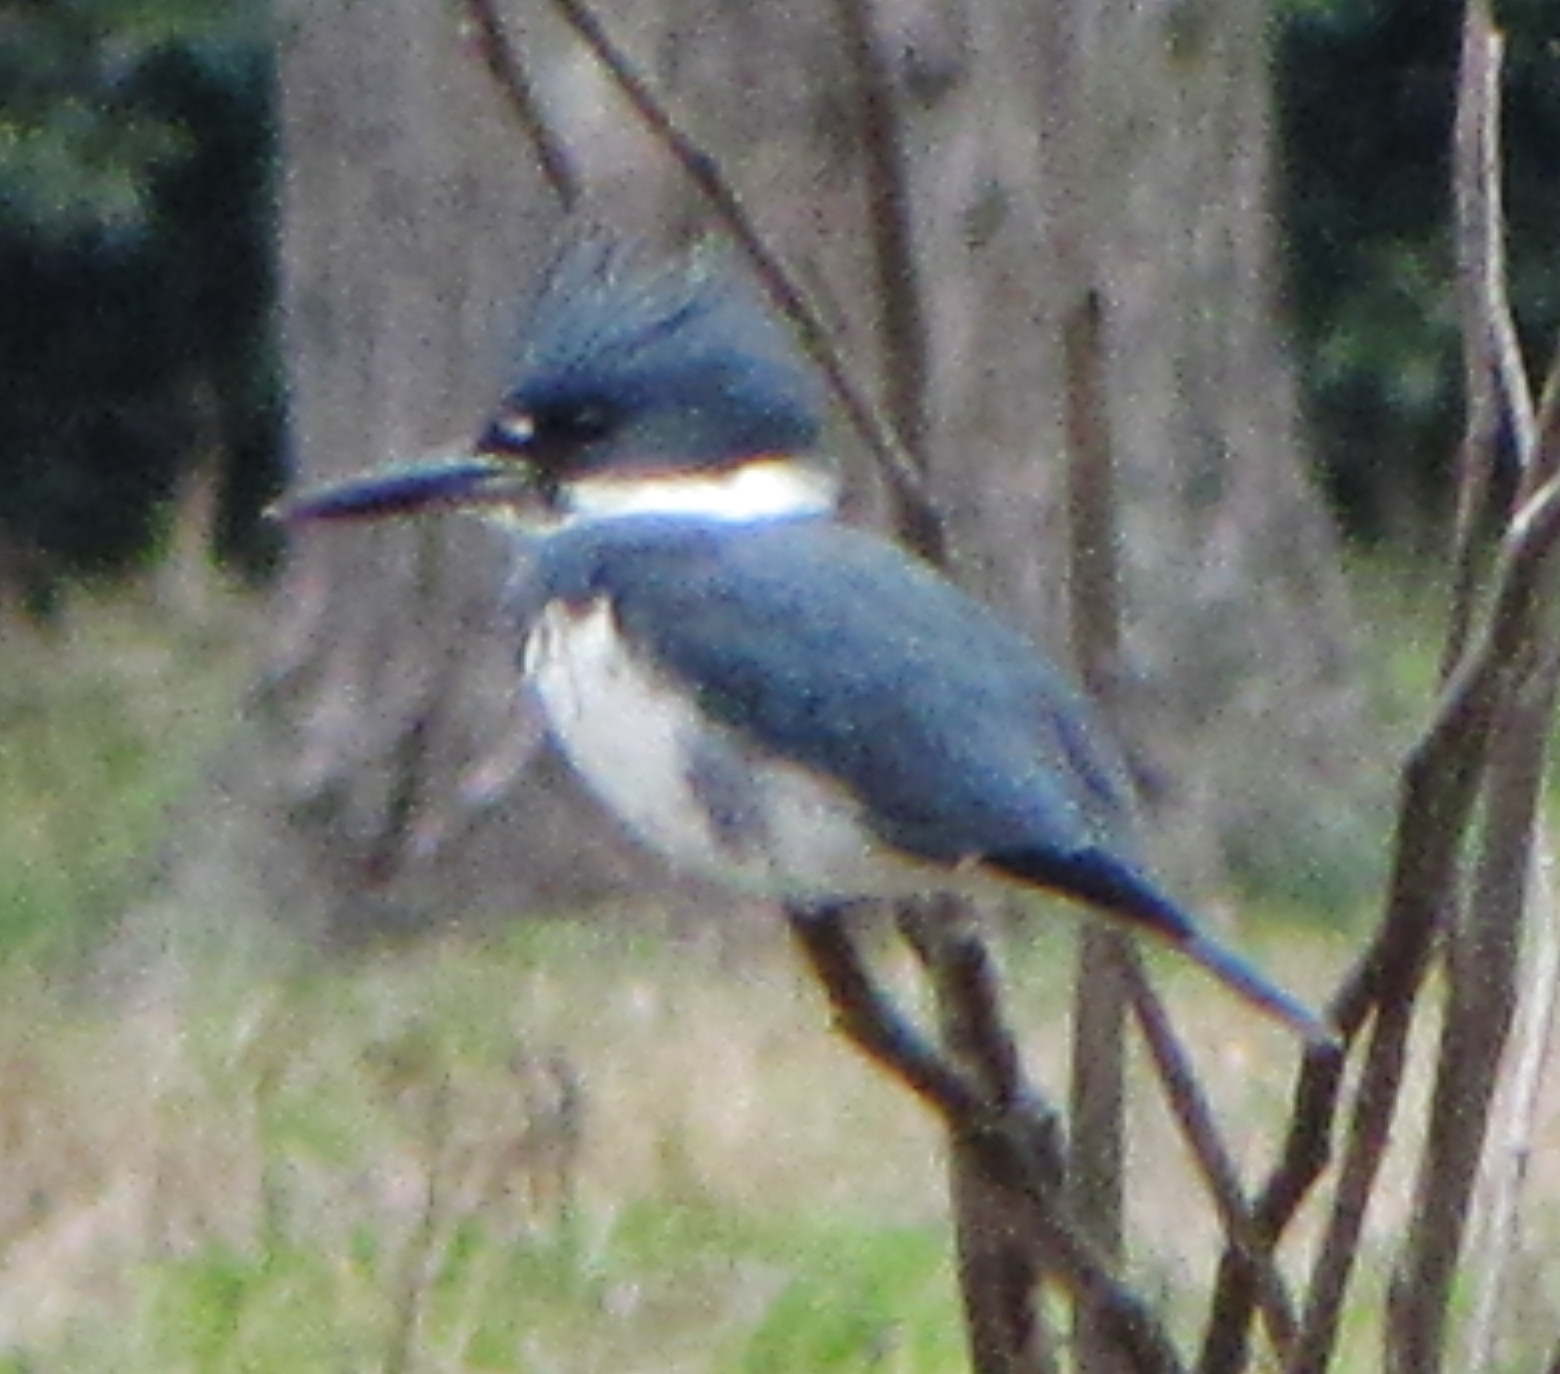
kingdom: Animalia
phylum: Chordata
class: Aves
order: Coraciiformes
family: Alcedinidae
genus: Megaceryle
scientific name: Megaceryle alcyon
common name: Belted kingfisher
